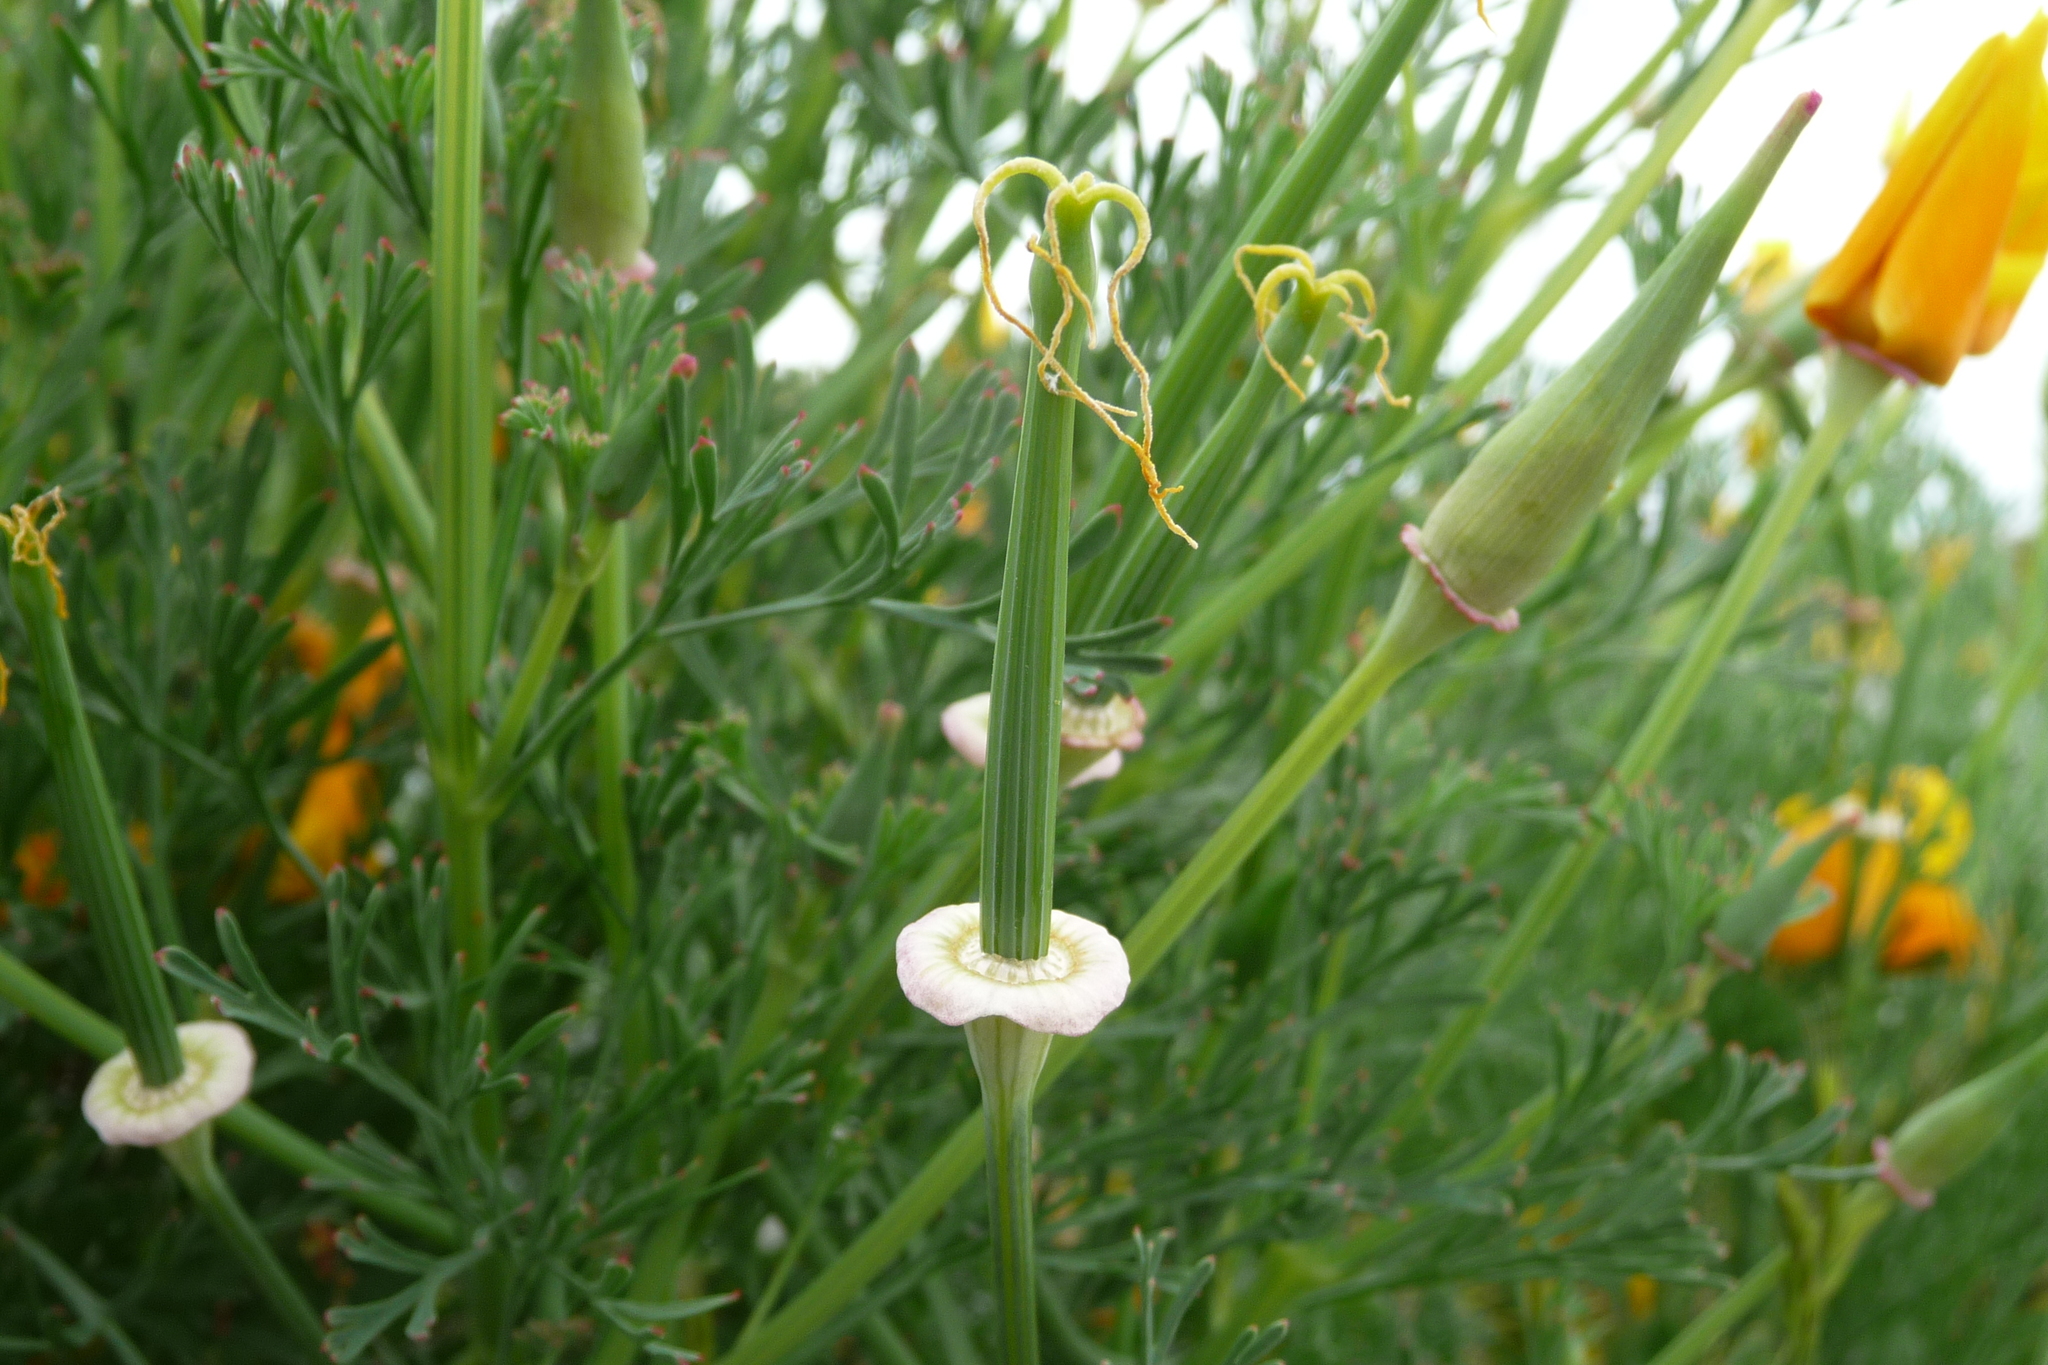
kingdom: Plantae
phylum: Tracheophyta
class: Magnoliopsida
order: Ranunculales
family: Papaveraceae
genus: Eschscholzia
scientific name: Eschscholzia californica
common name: California poppy
